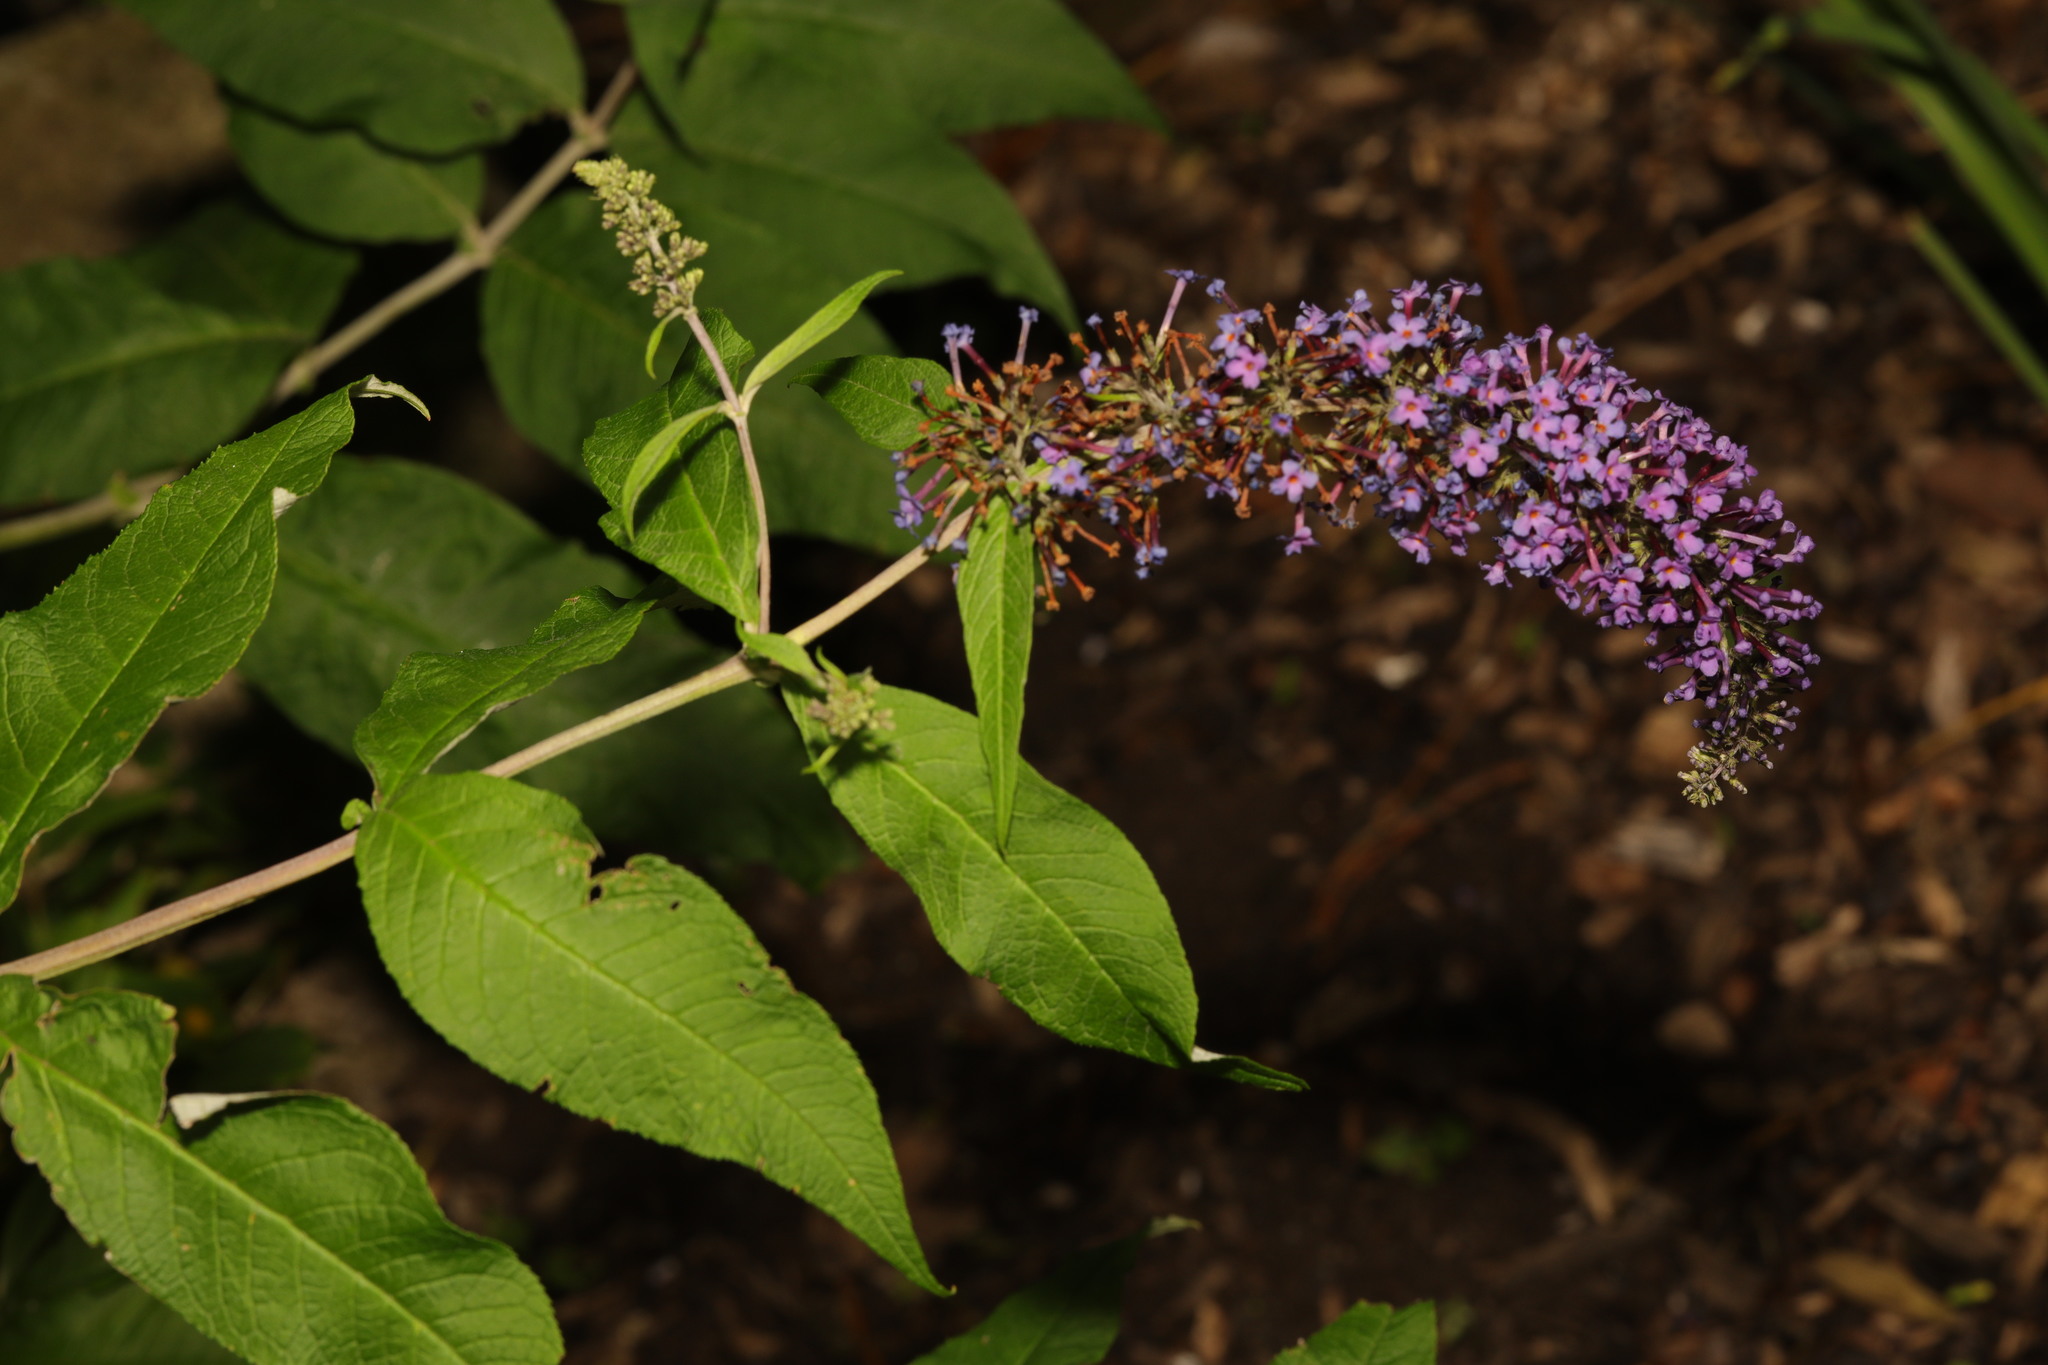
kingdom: Plantae
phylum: Tracheophyta
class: Magnoliopsida
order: Lamiales
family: Scrophulariaceae
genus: Buddleja
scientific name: Buddleja davidii
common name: Butterfly-bush
